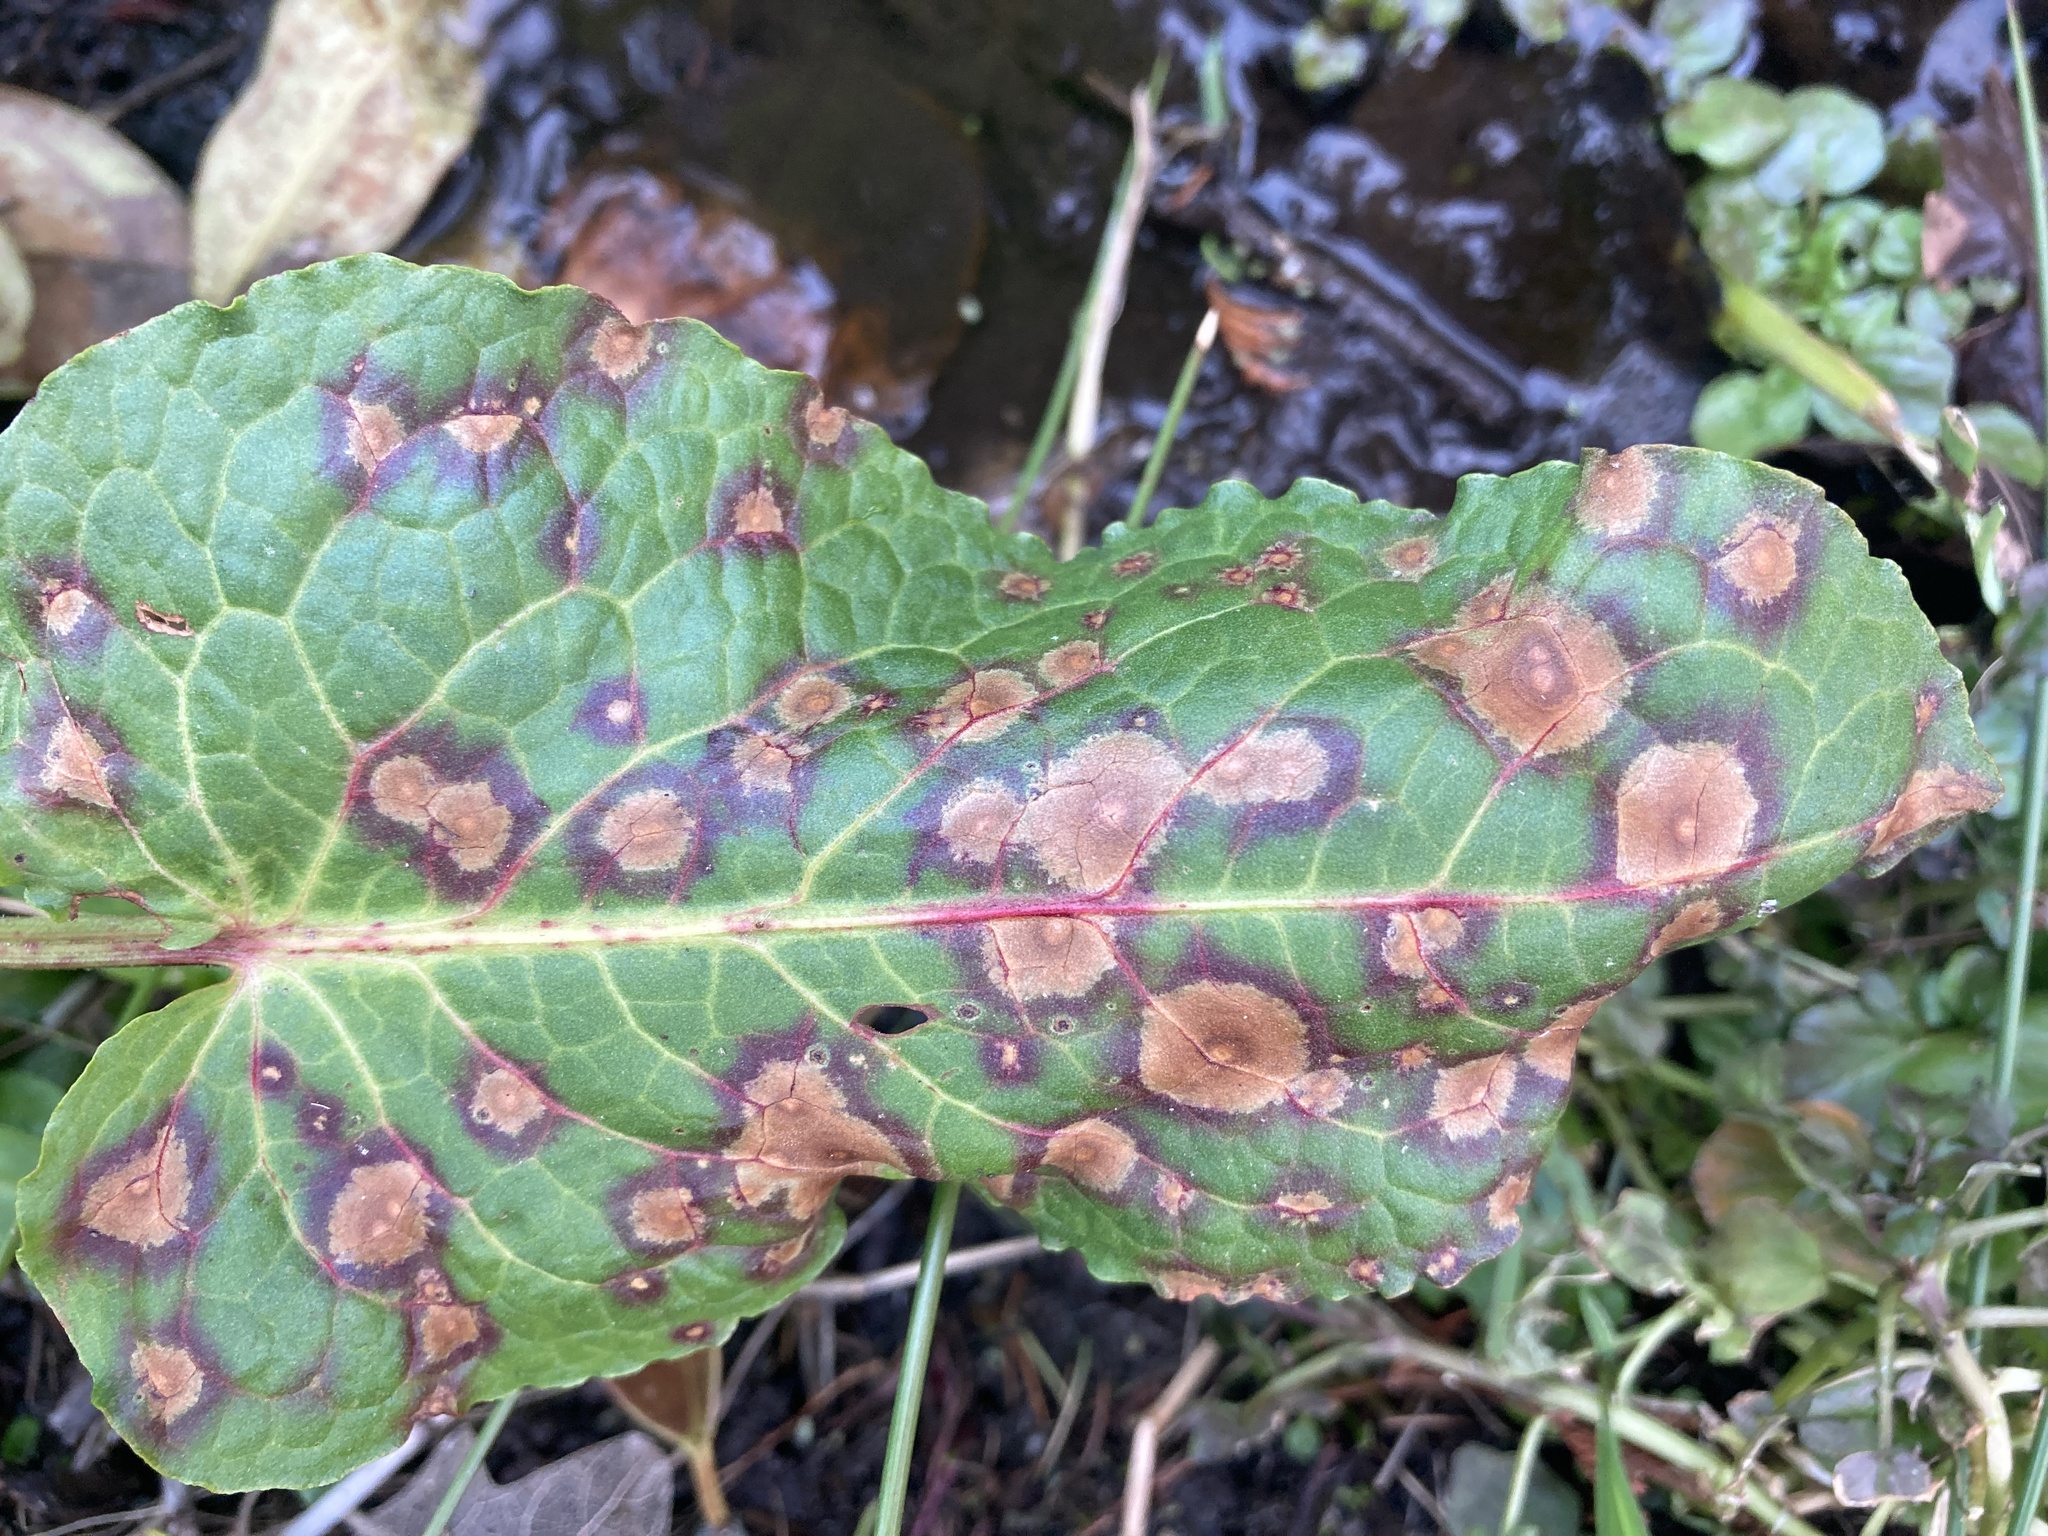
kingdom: Fungi
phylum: Ascomycota
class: Dothideomycetes
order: Mycosphaerellales
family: Mycosphaerellaceae
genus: Ramularia
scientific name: Ramularia rubella
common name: Red dock spot
